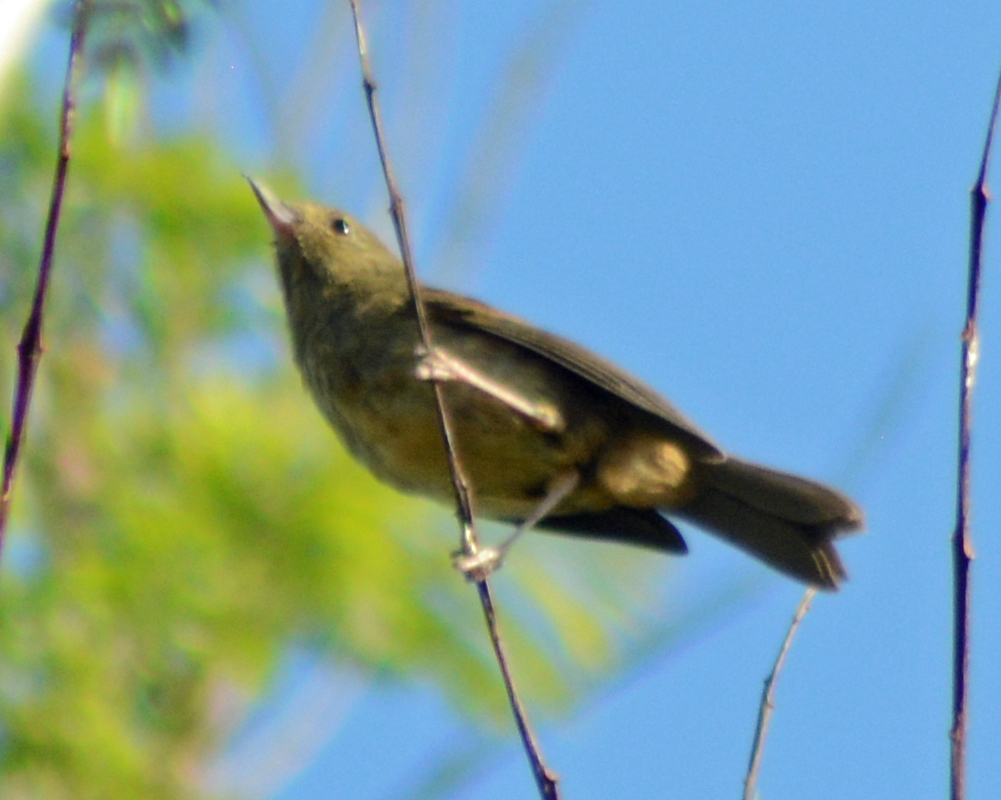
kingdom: Animalia
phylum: Chordata
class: Aves
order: Passeriformes
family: Thraupidae
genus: Diglossa
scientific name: Diglossa baritula
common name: Cinnamon-bellied flowerpiercer
